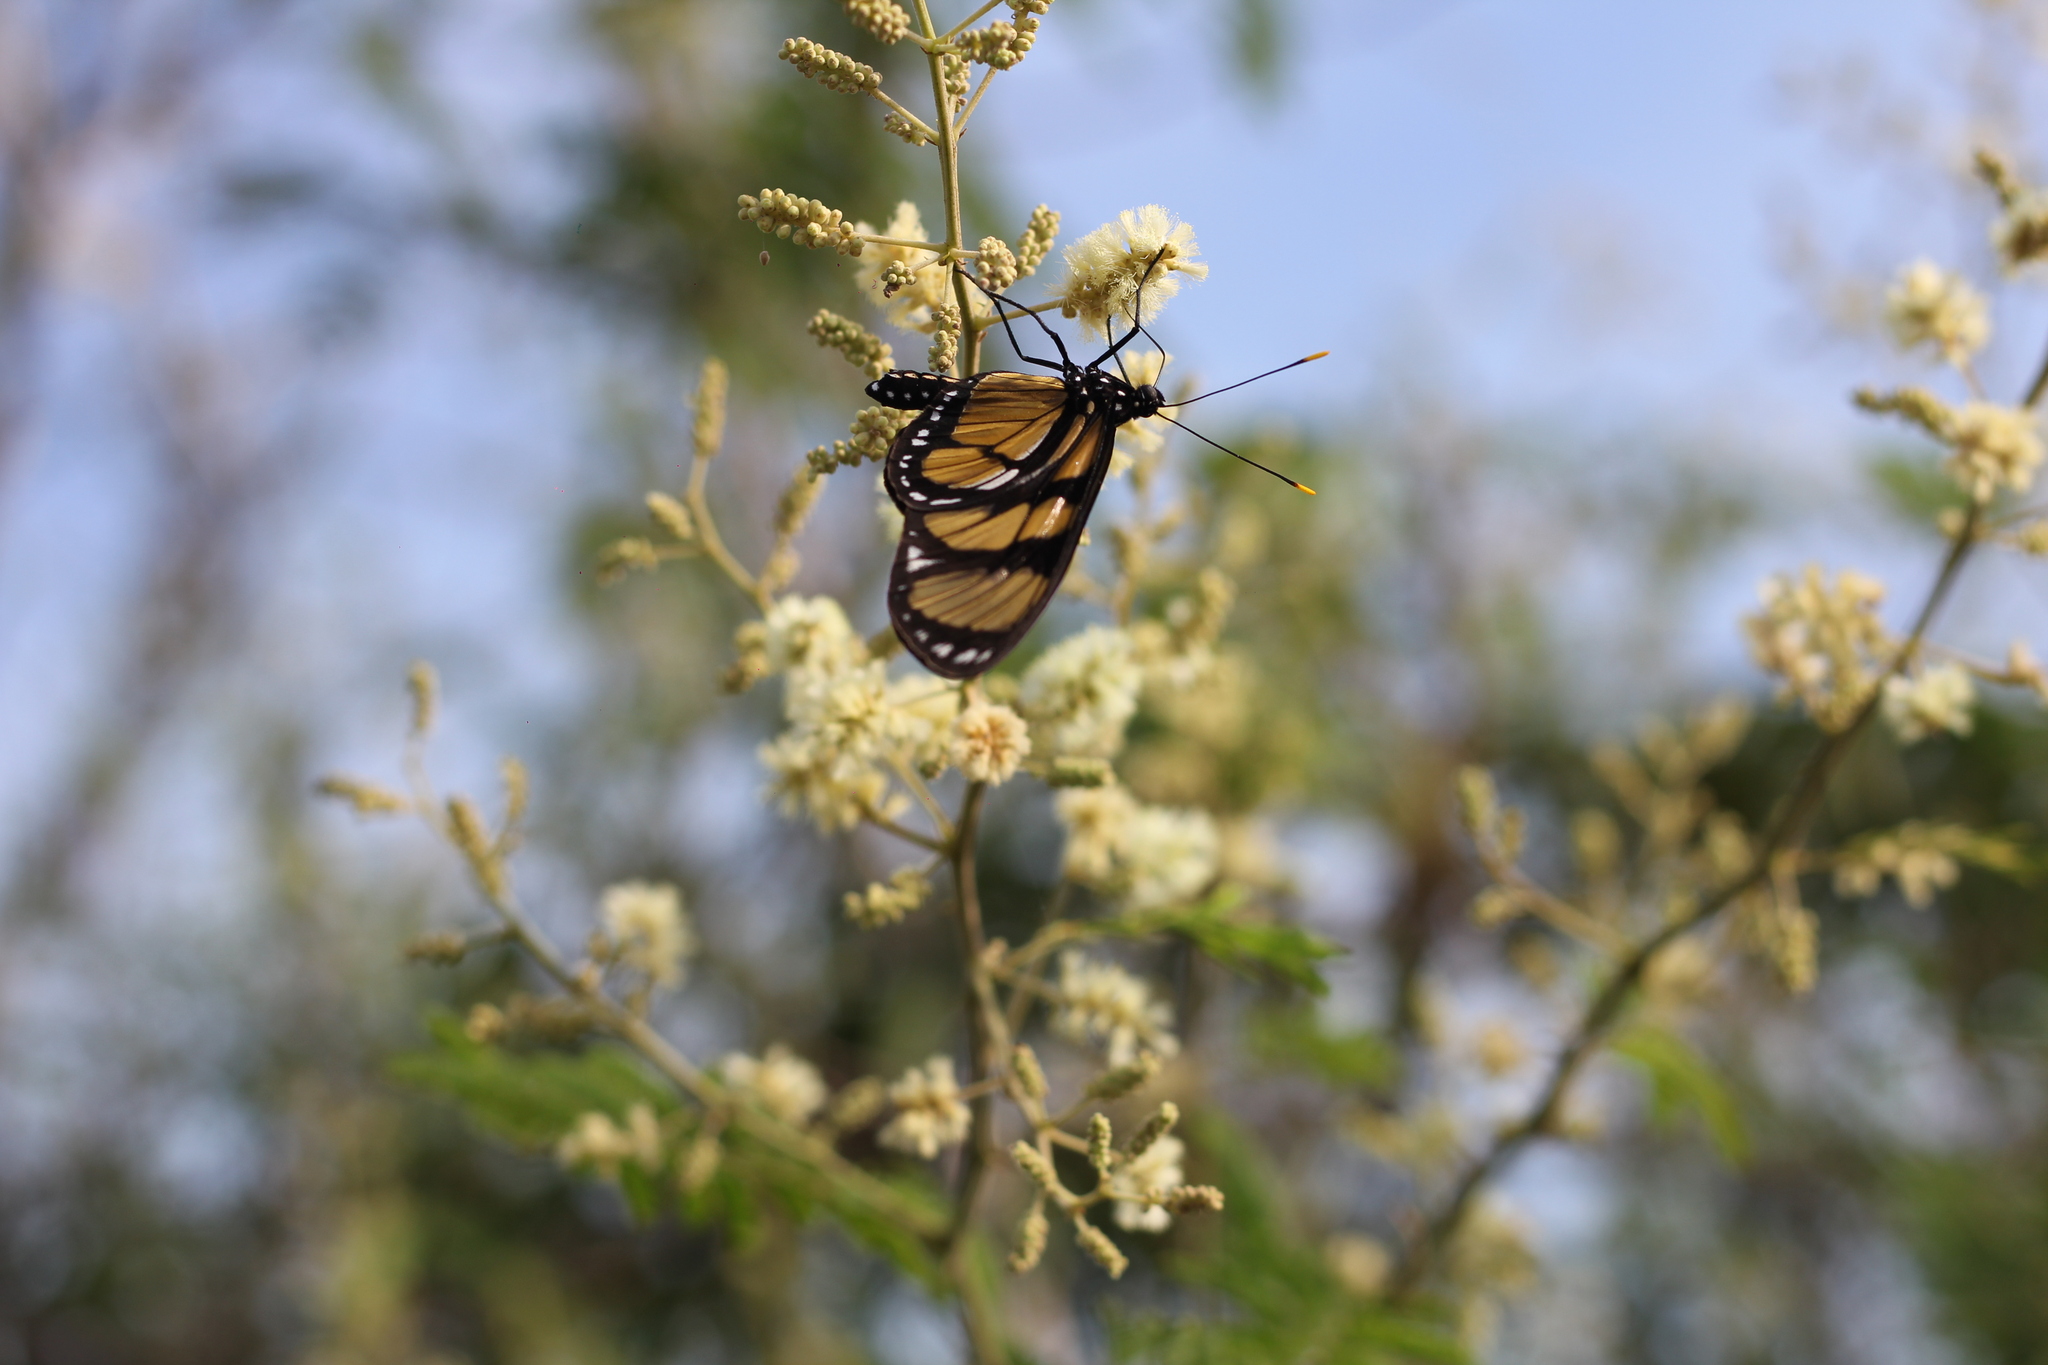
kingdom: Animalia
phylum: Arthropoda
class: Insecta
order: Lepidoptera
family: Nymphalidae
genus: Methona
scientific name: Methona themisto
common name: Themisto amberwing
